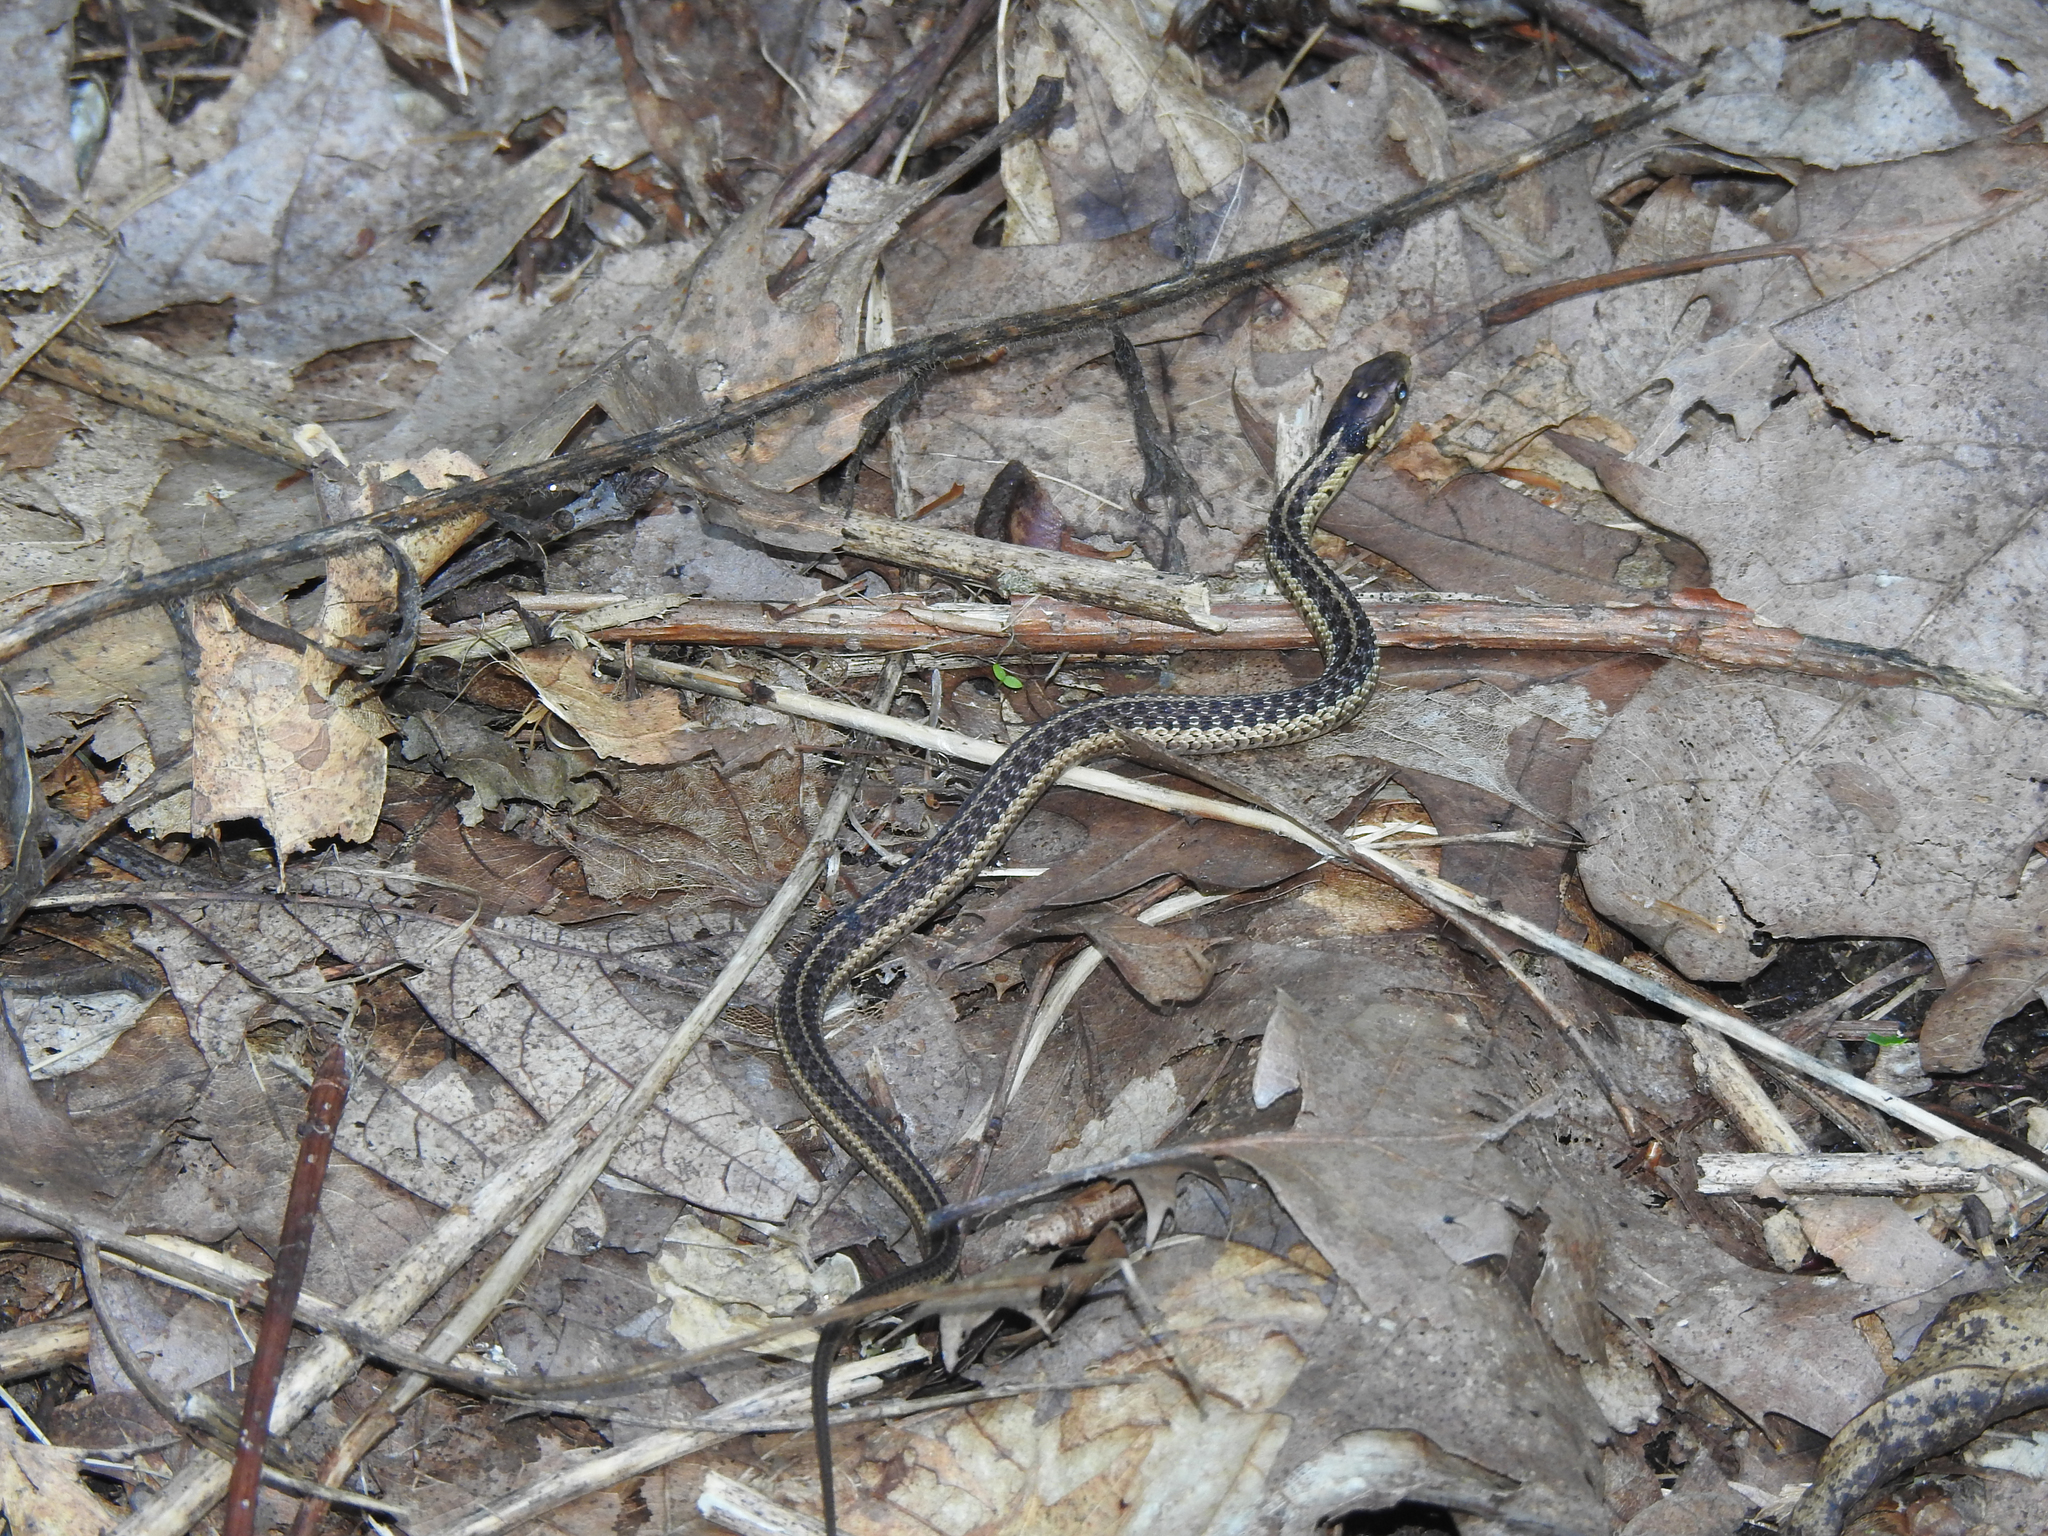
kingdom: Animalia
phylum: Chordata
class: Squamata
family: Colubridae
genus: Thamnophis
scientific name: Thamnophis sirtalis
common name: Common garter snake
